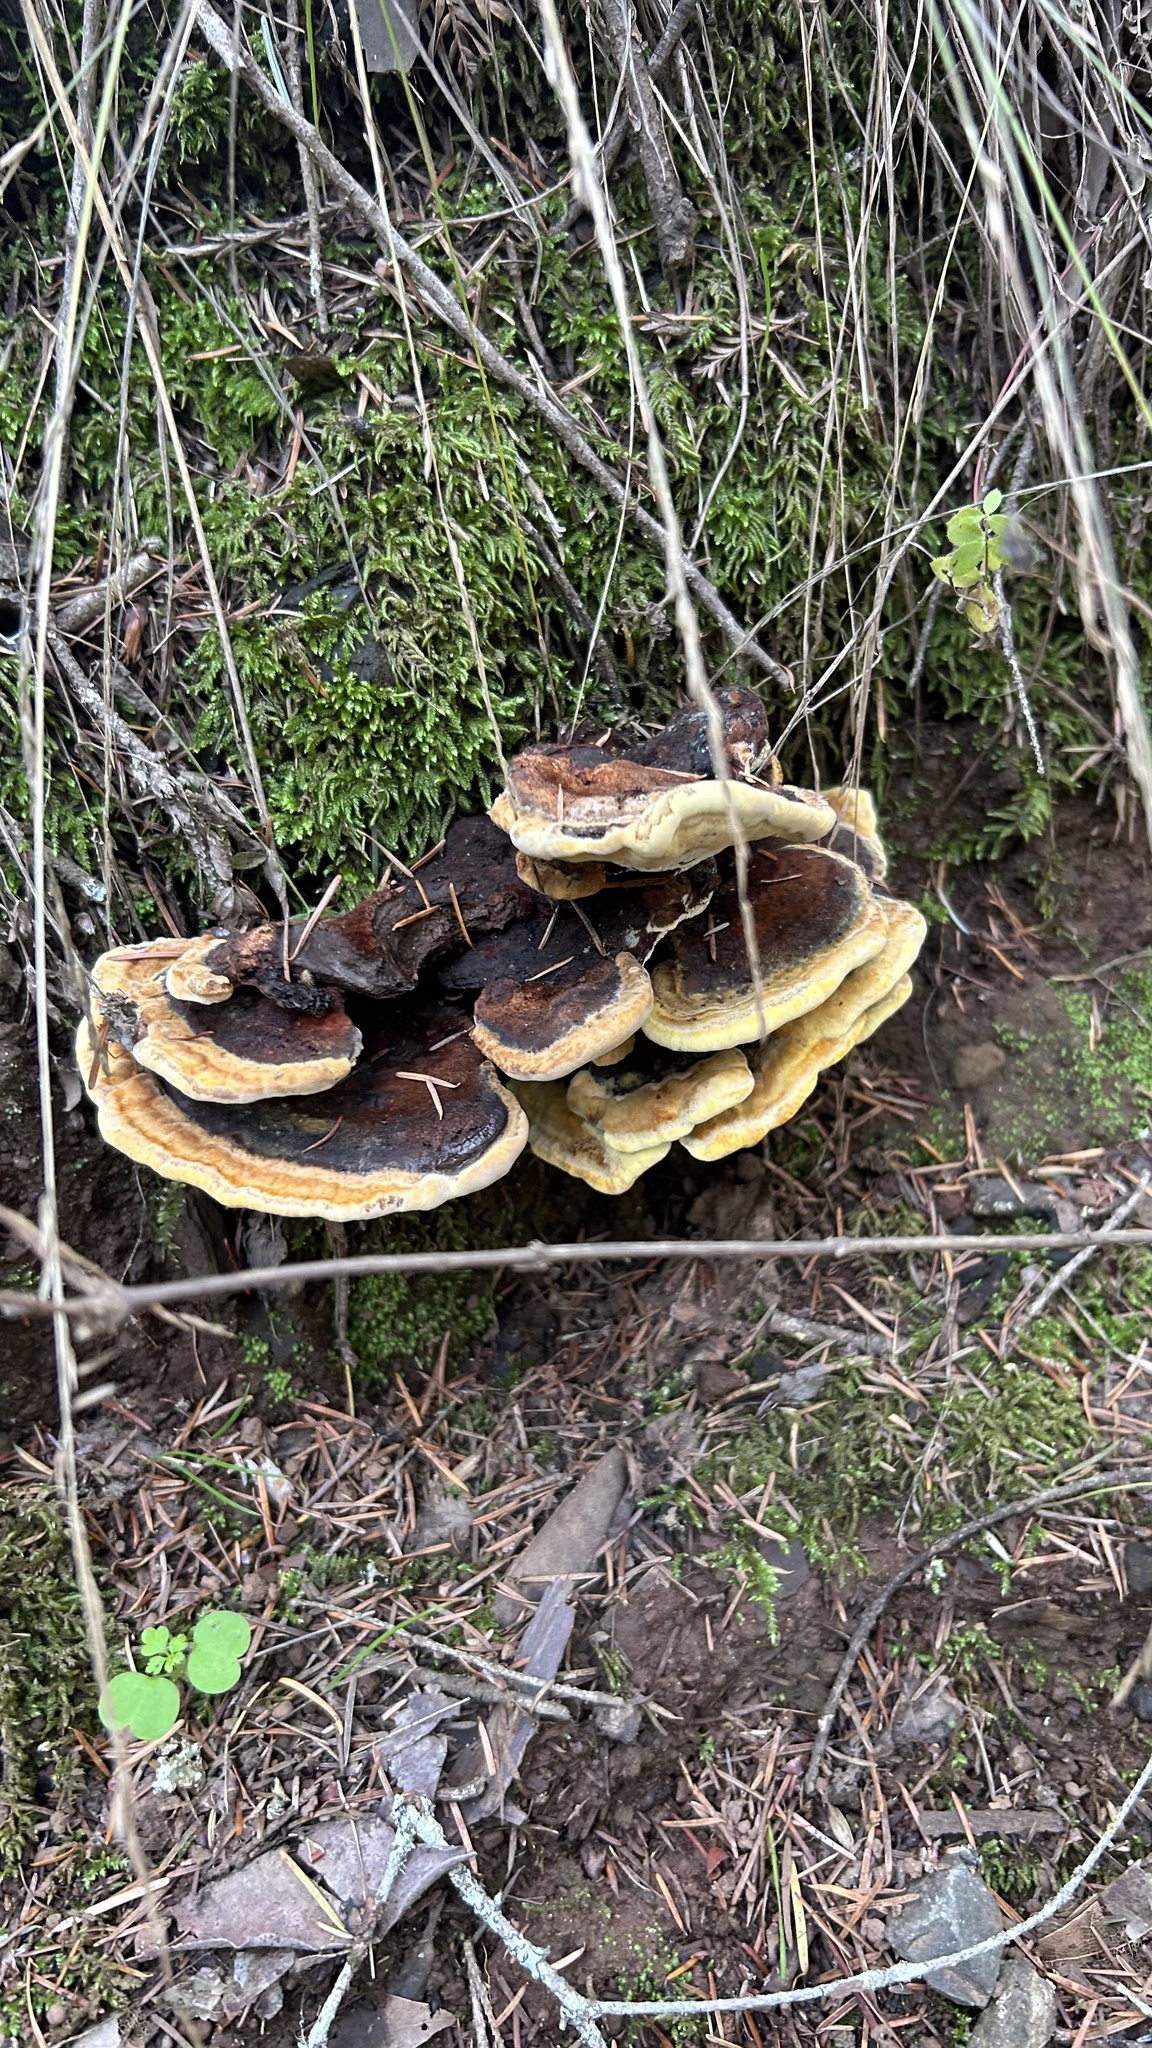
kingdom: Fungi
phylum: Basidiomycota
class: Agaricomycetes
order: Polyporales
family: Laetiporaceae
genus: Phaeolus
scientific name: Phaeolus schweinitzii
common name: Dyer's mazegill
